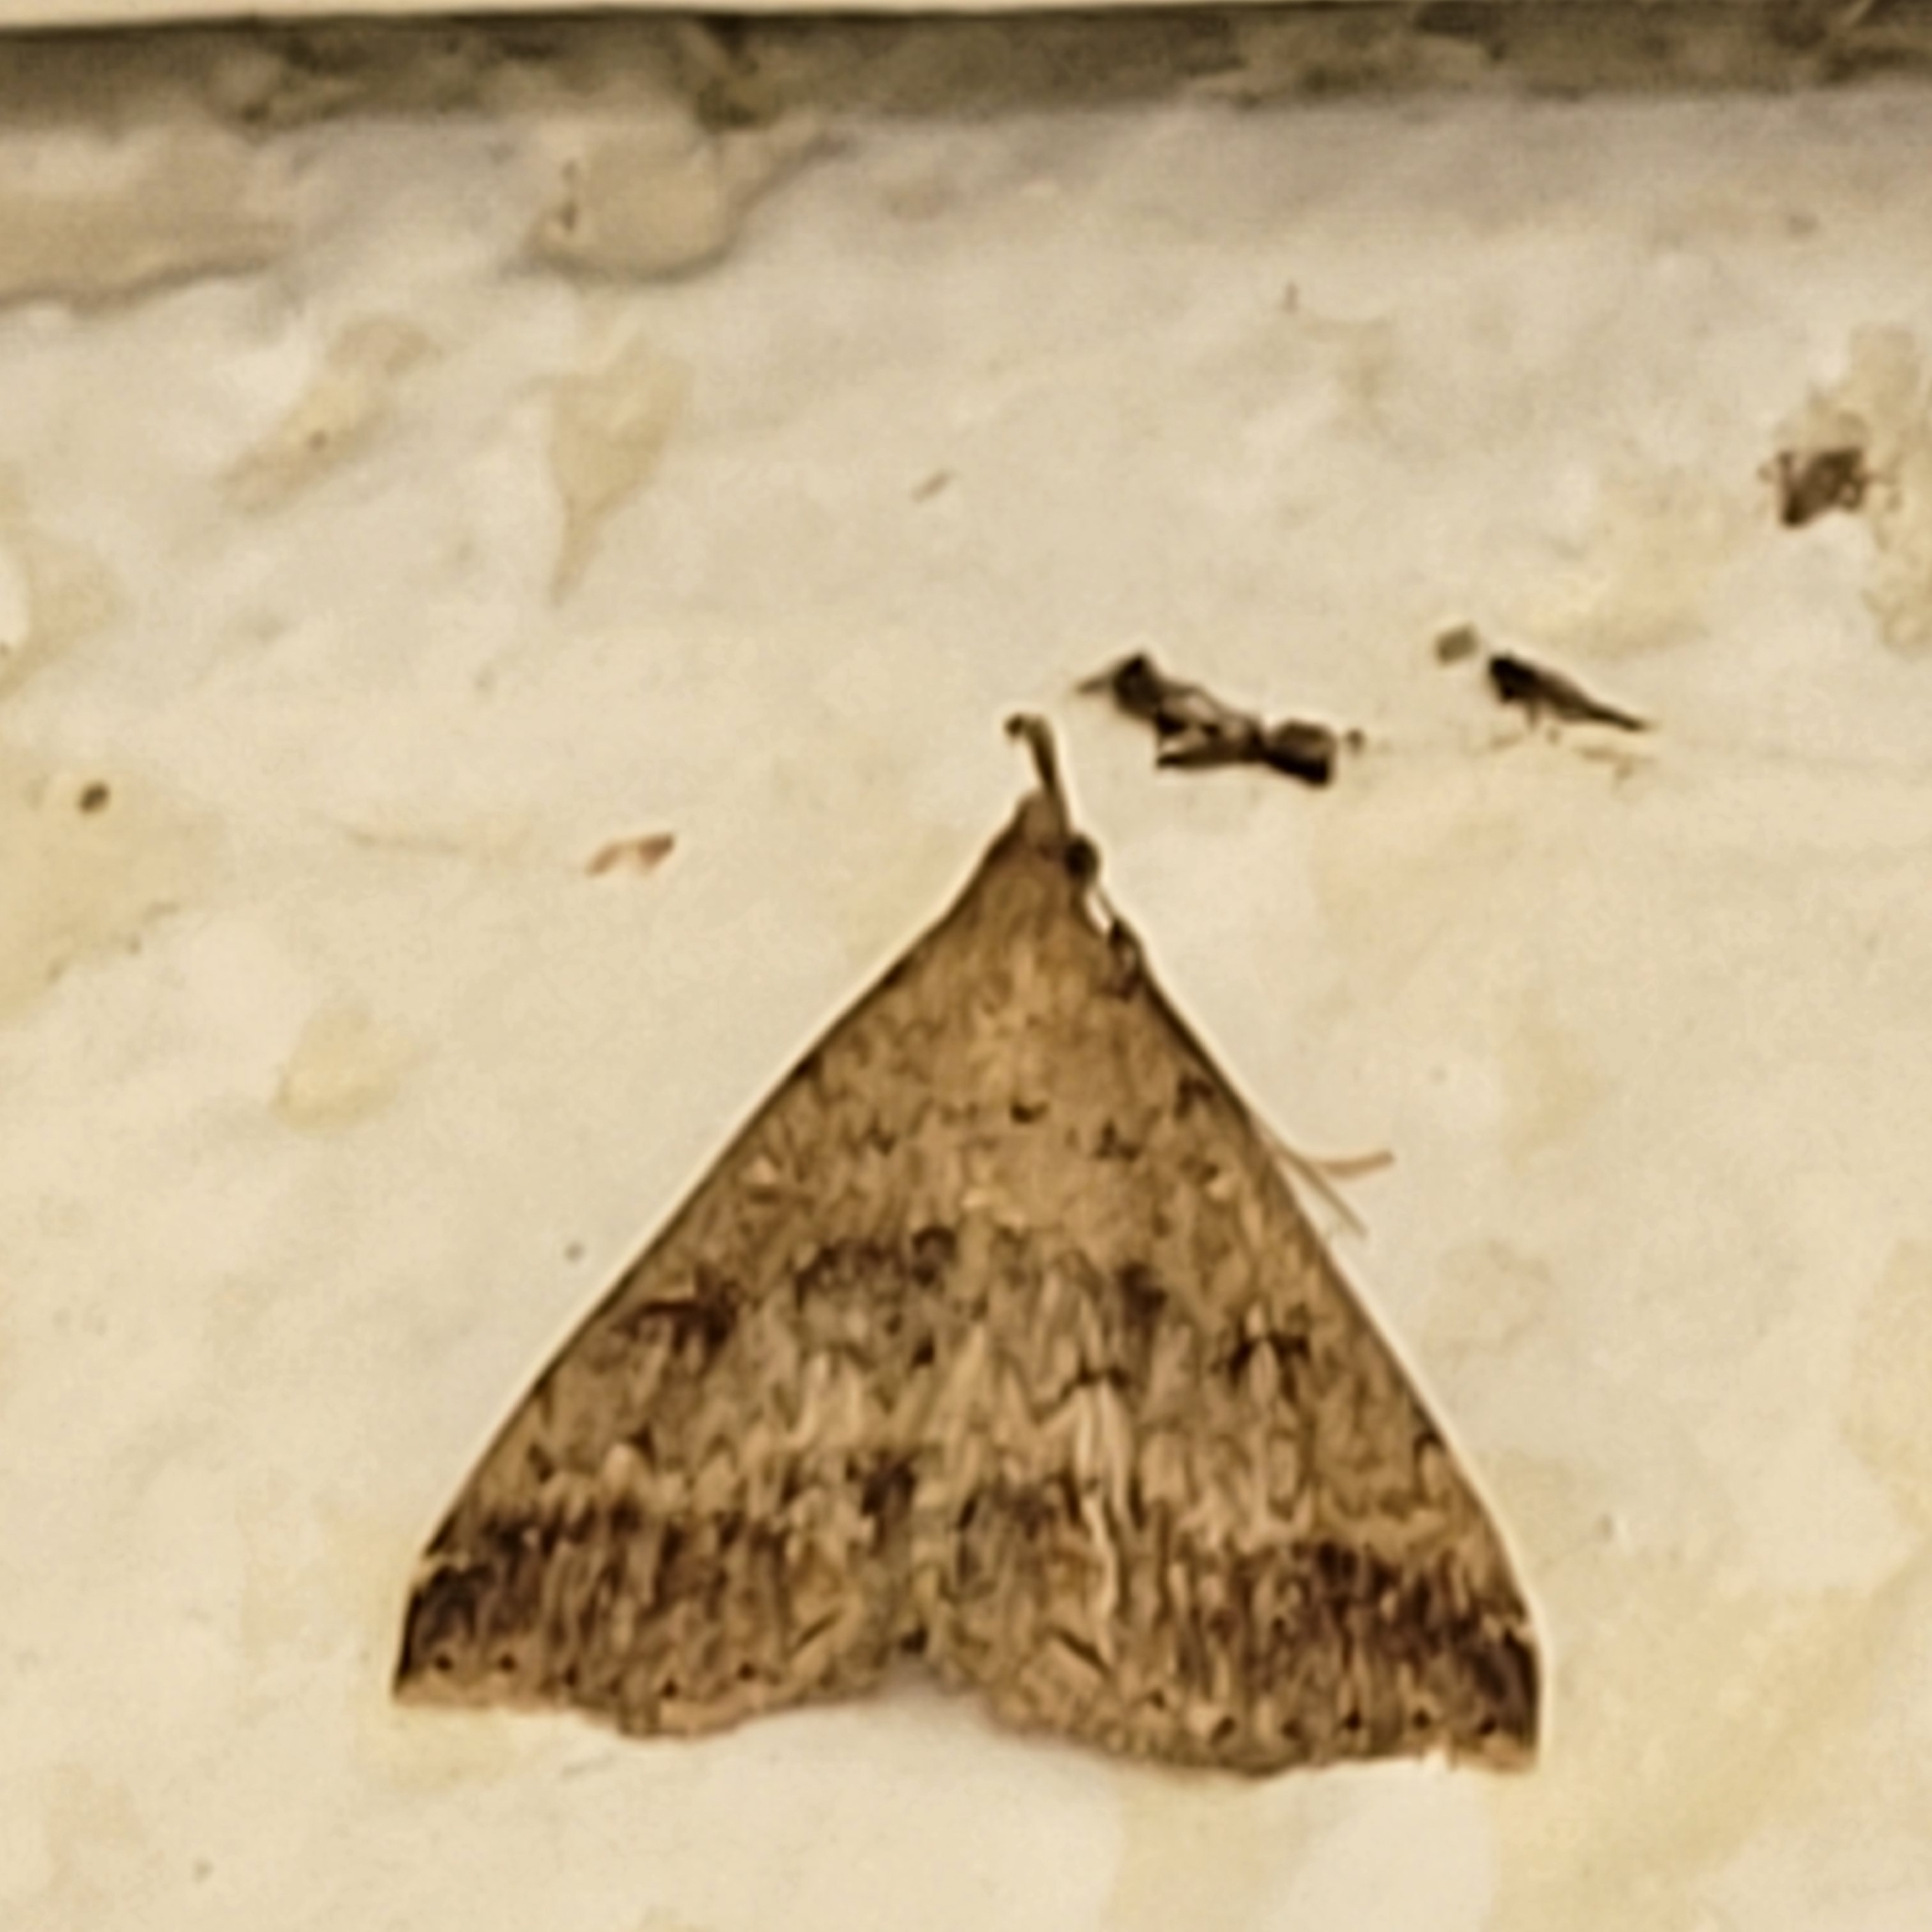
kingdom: Animalia
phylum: Arthropoda
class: Insecta
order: Lepidoptera
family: Erebidae
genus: Tetanolita
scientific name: Tetanolita palligera
